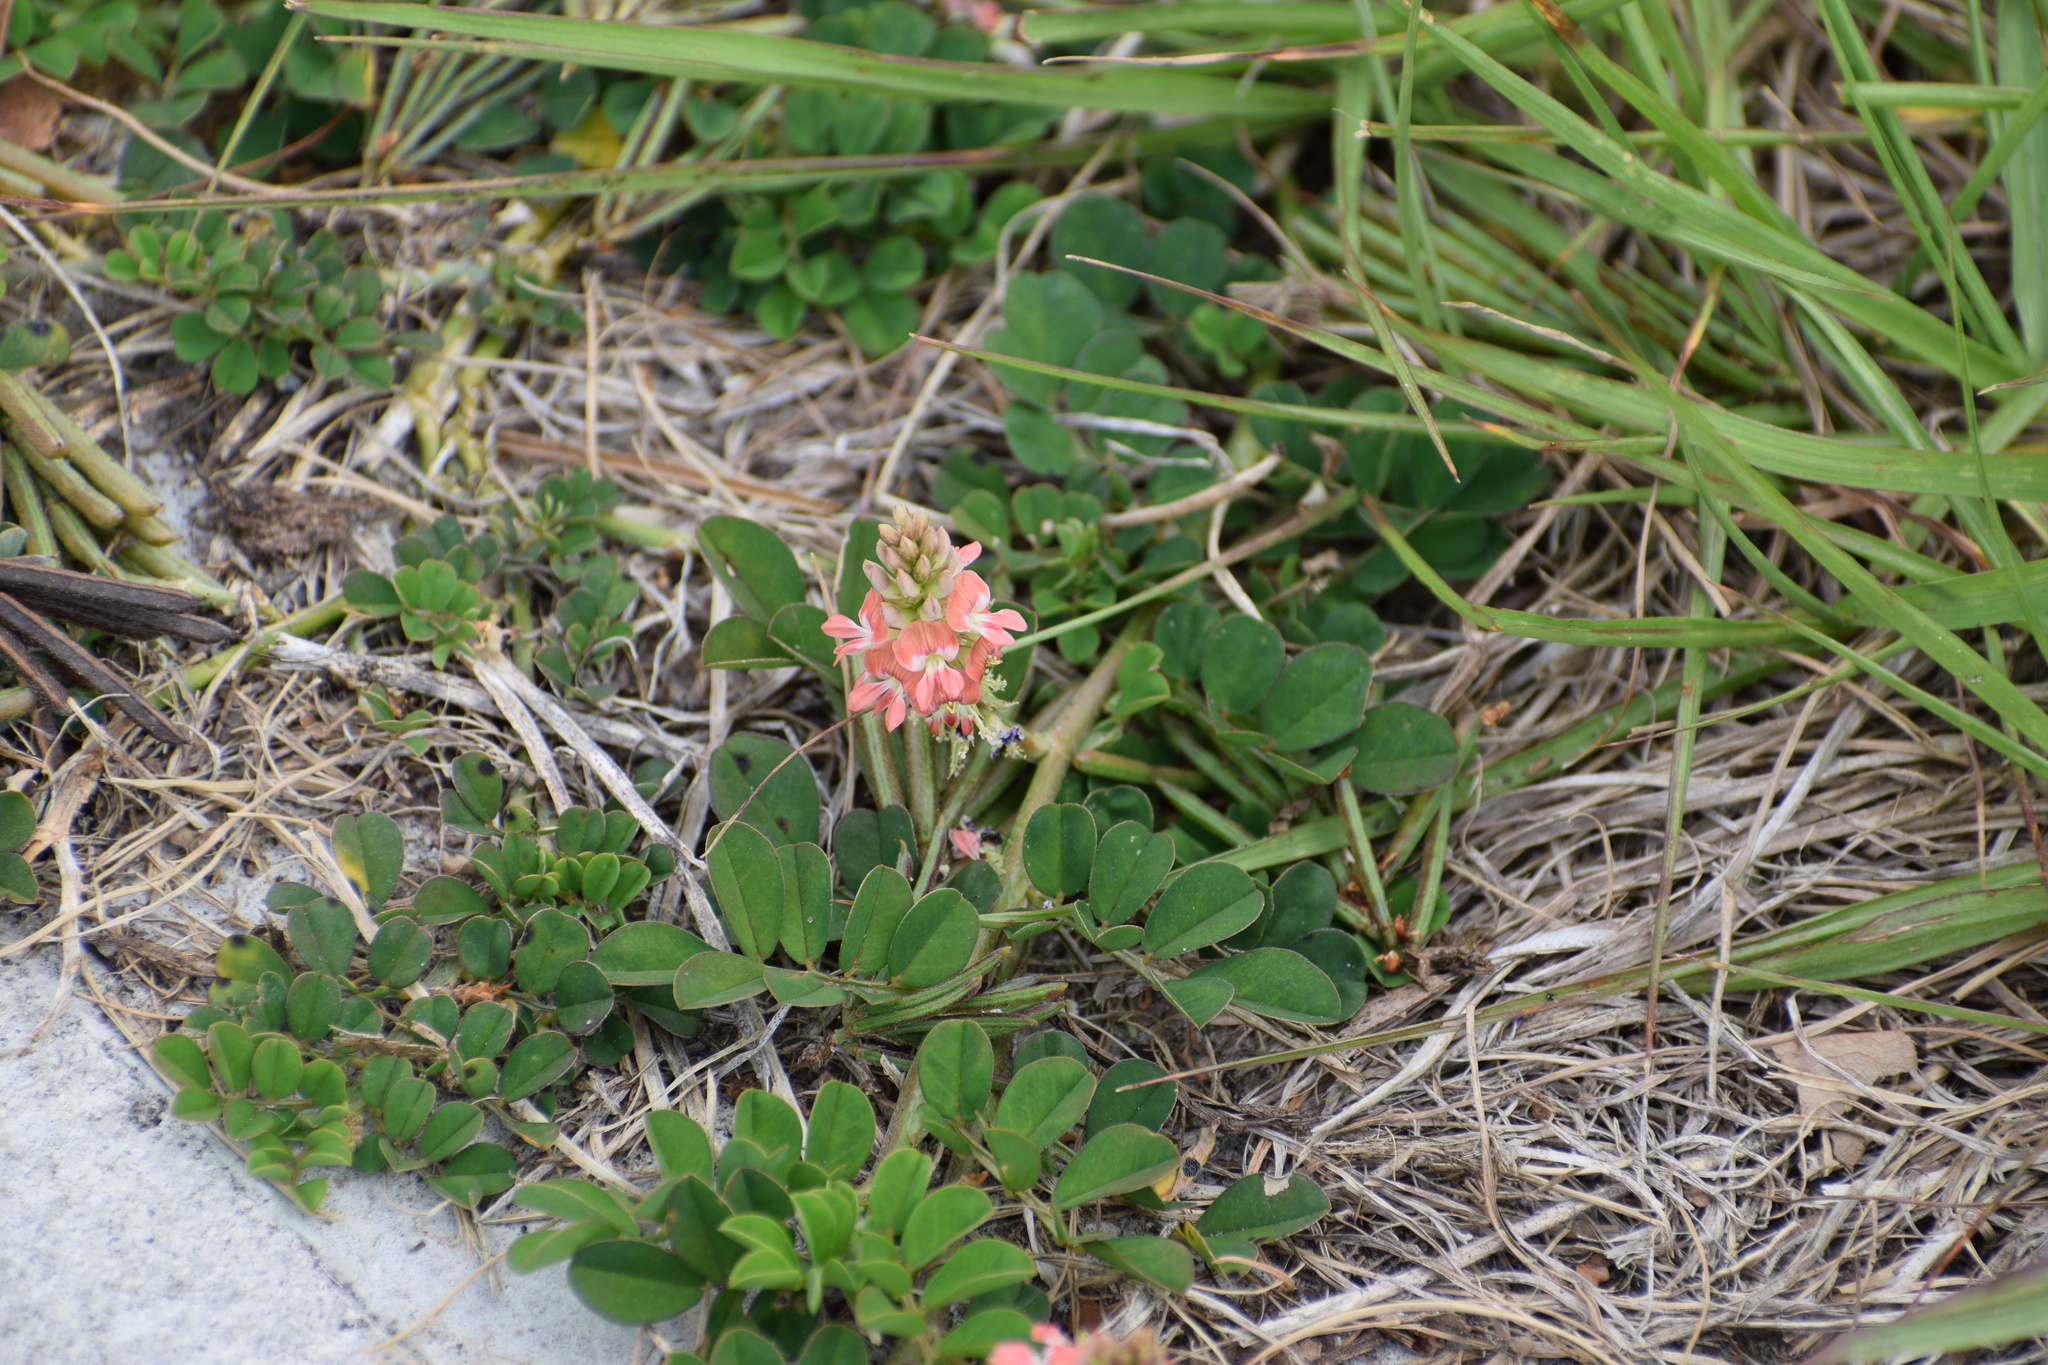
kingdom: Plantae
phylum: Tracheophyta
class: Magnoliopsida
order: Fabales
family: Fabaceae
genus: Indigofera
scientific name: Indigofera spicata
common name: Creeping indigo
